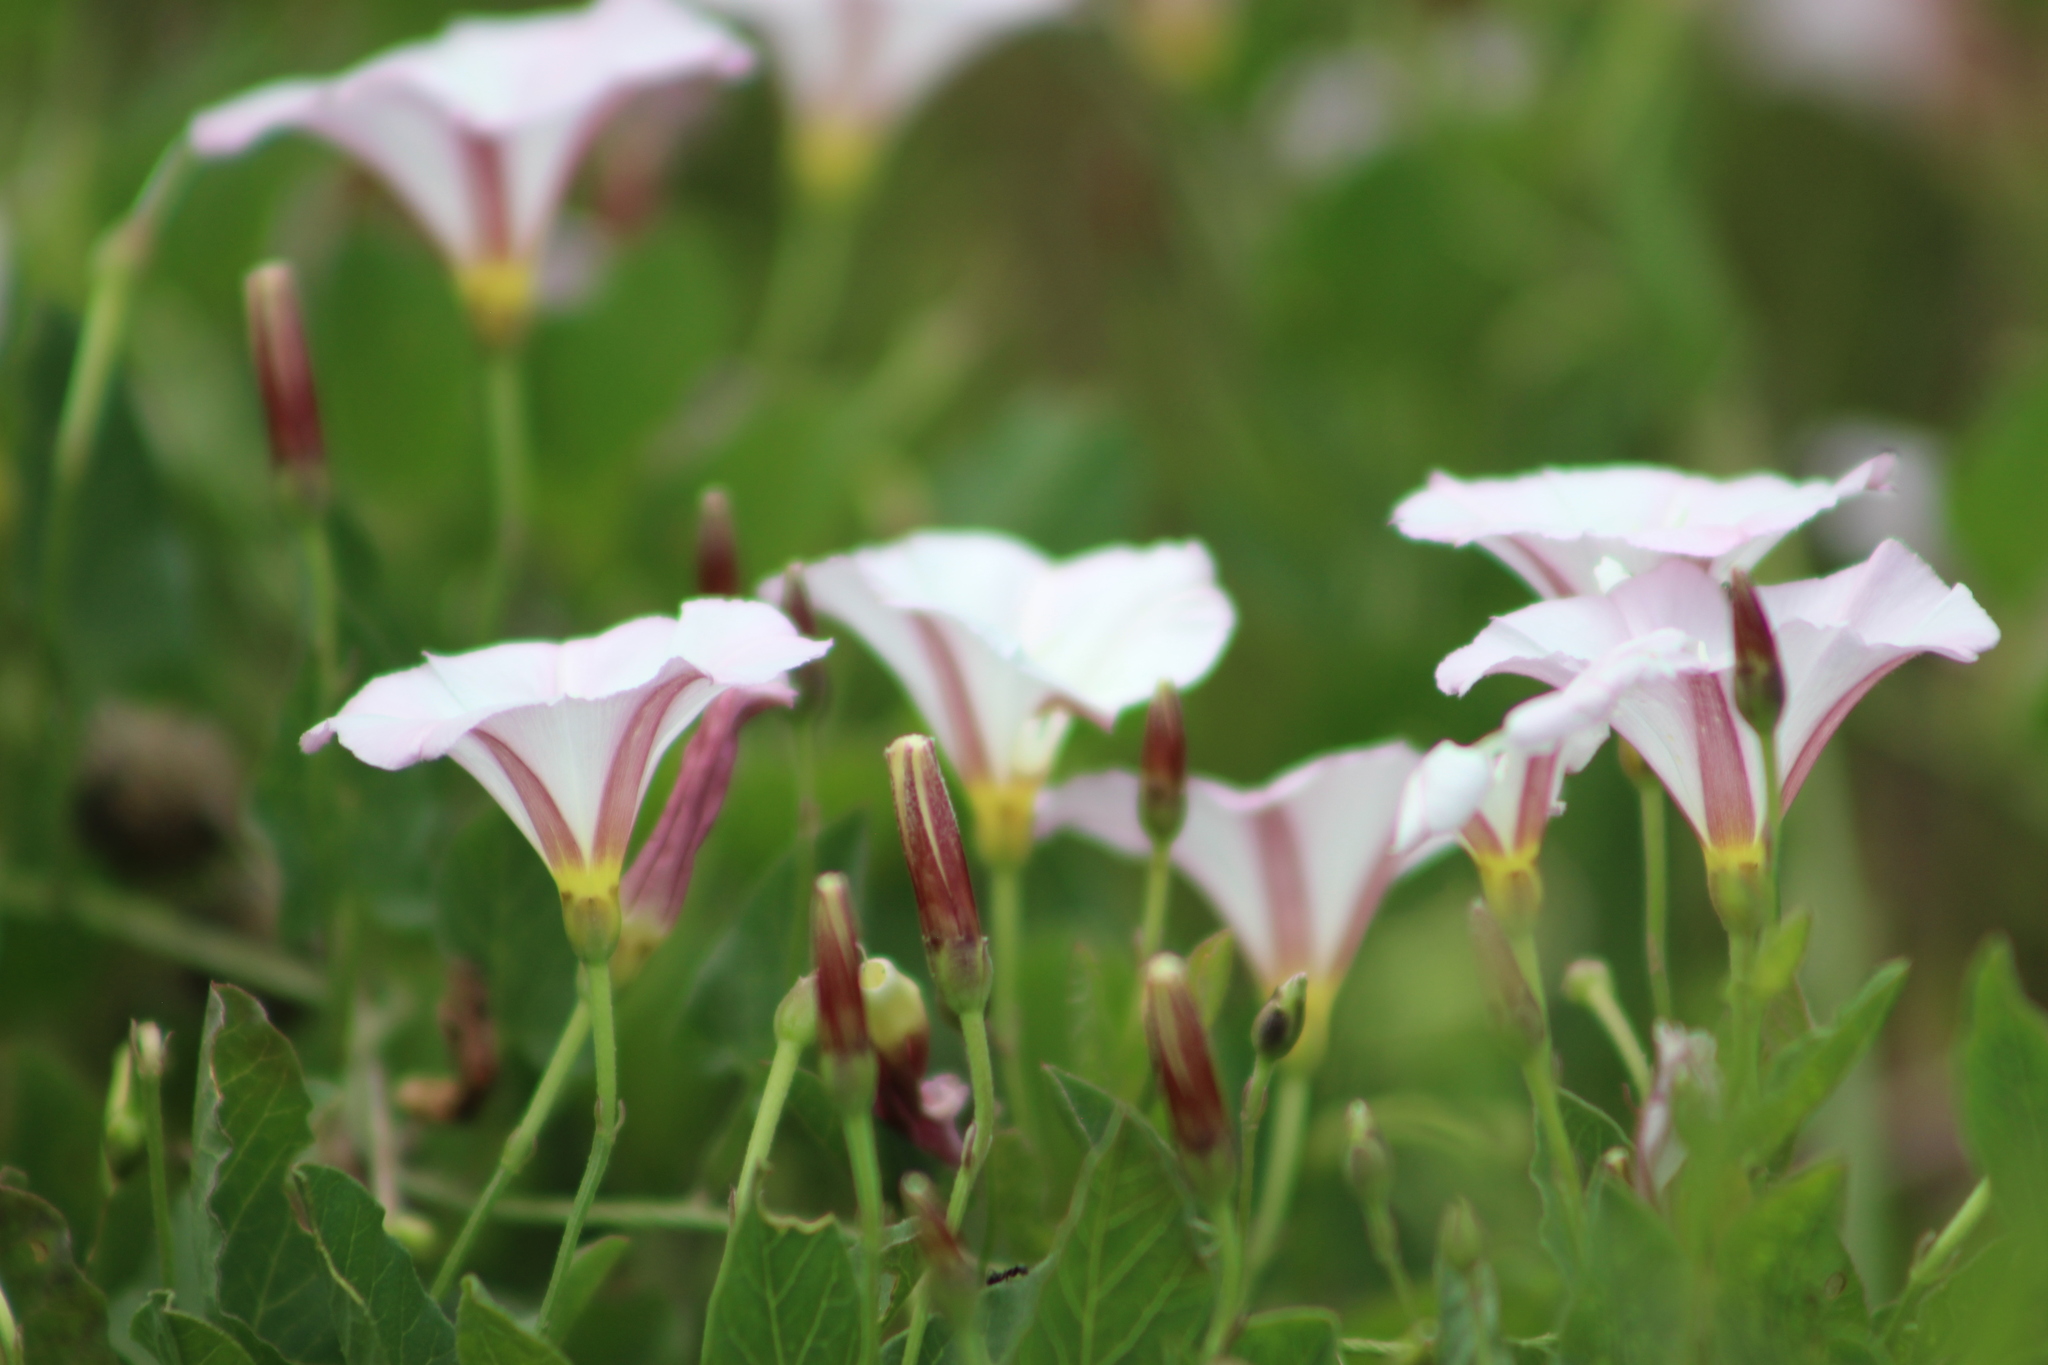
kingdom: Plantae
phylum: Tracheophyta
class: Magnoliopsida
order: Solanales
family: Convolvulaceae
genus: Convolvulus
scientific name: Convolvulus arvensis
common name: Field bindweed
